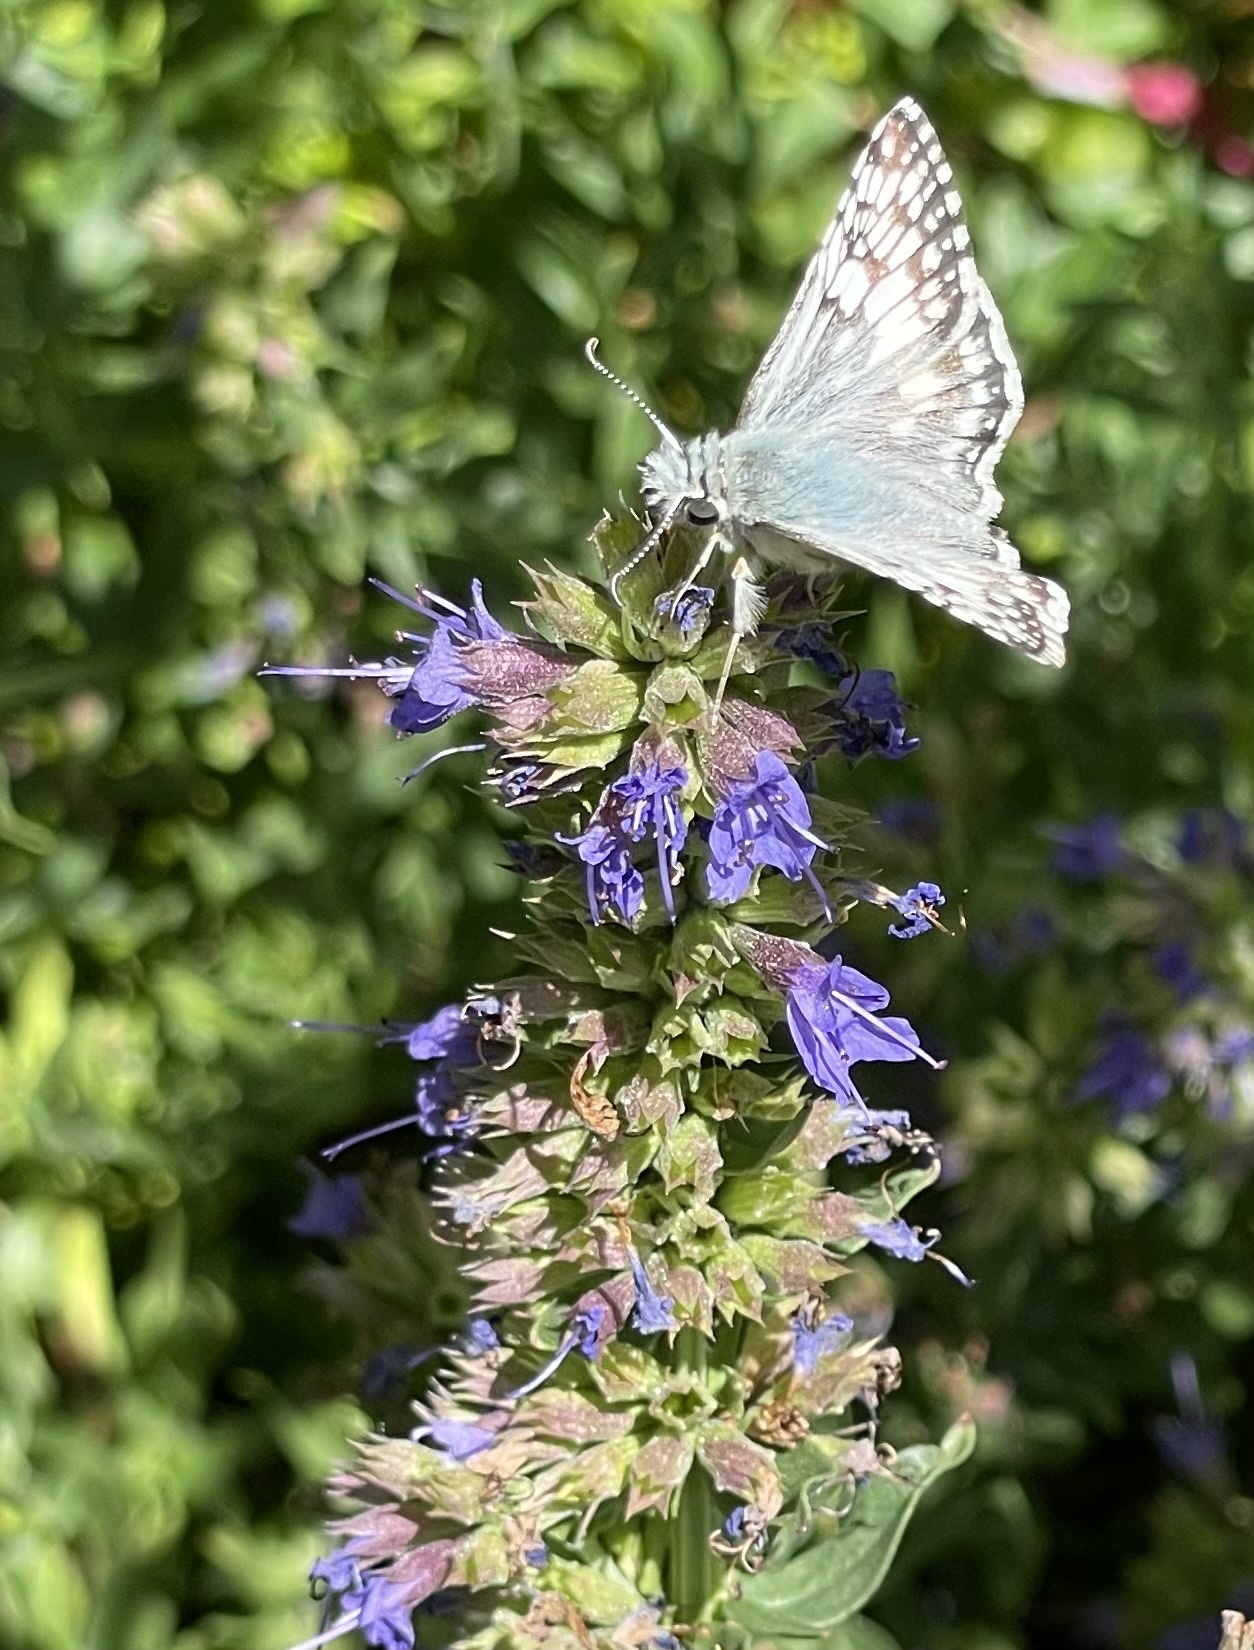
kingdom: Animalia
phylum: Arthropoda
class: Insecta
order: Lepidoptera
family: Hesperiidae
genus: Burnsius
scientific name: Burnsius communis
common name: Common checkered-skipper
